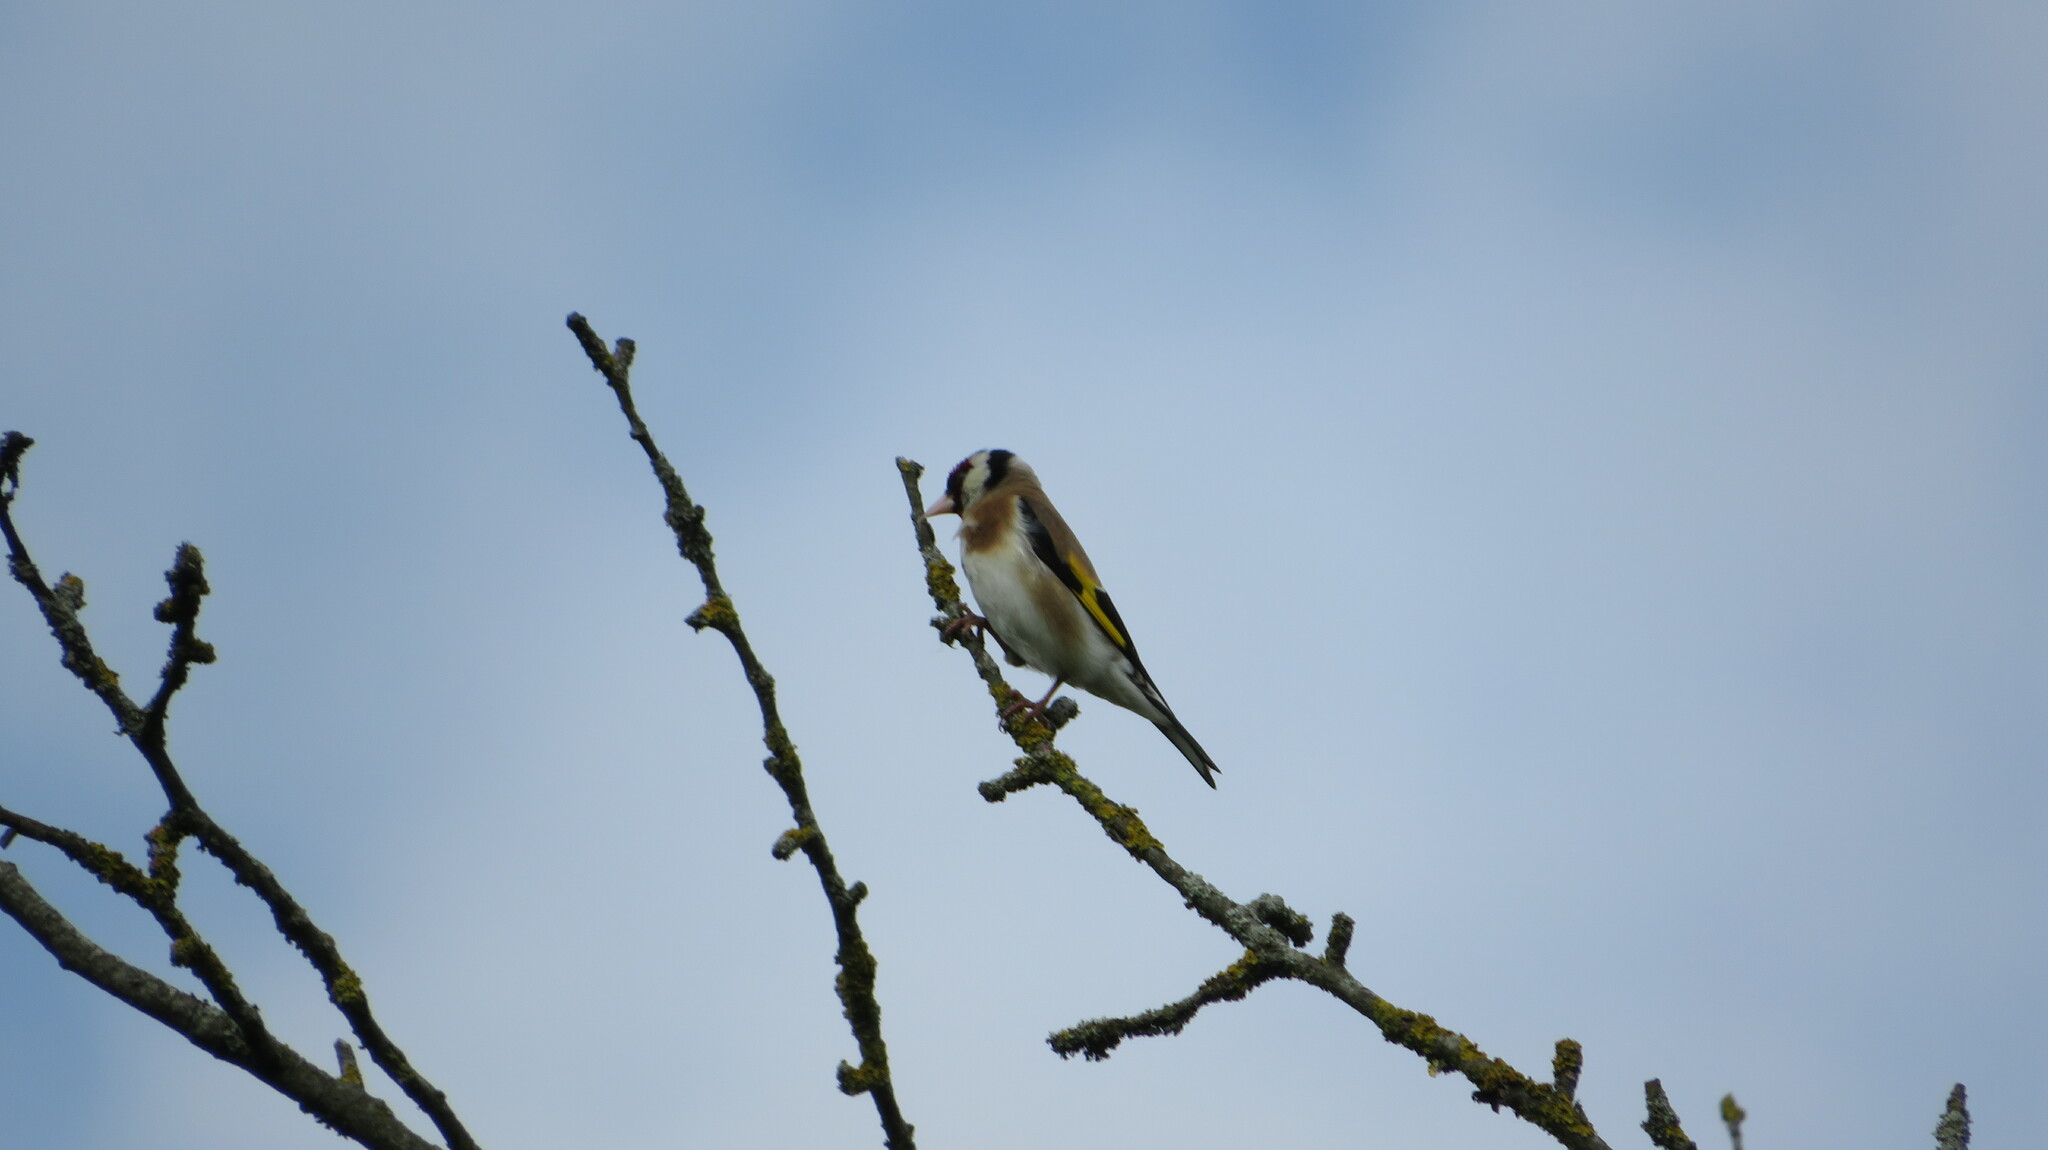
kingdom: Animalia
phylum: Chordata
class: Aves
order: Passeriformes
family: Fringillidae
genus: Carduelis
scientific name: Carduelis carduelis
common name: European goldfinch
